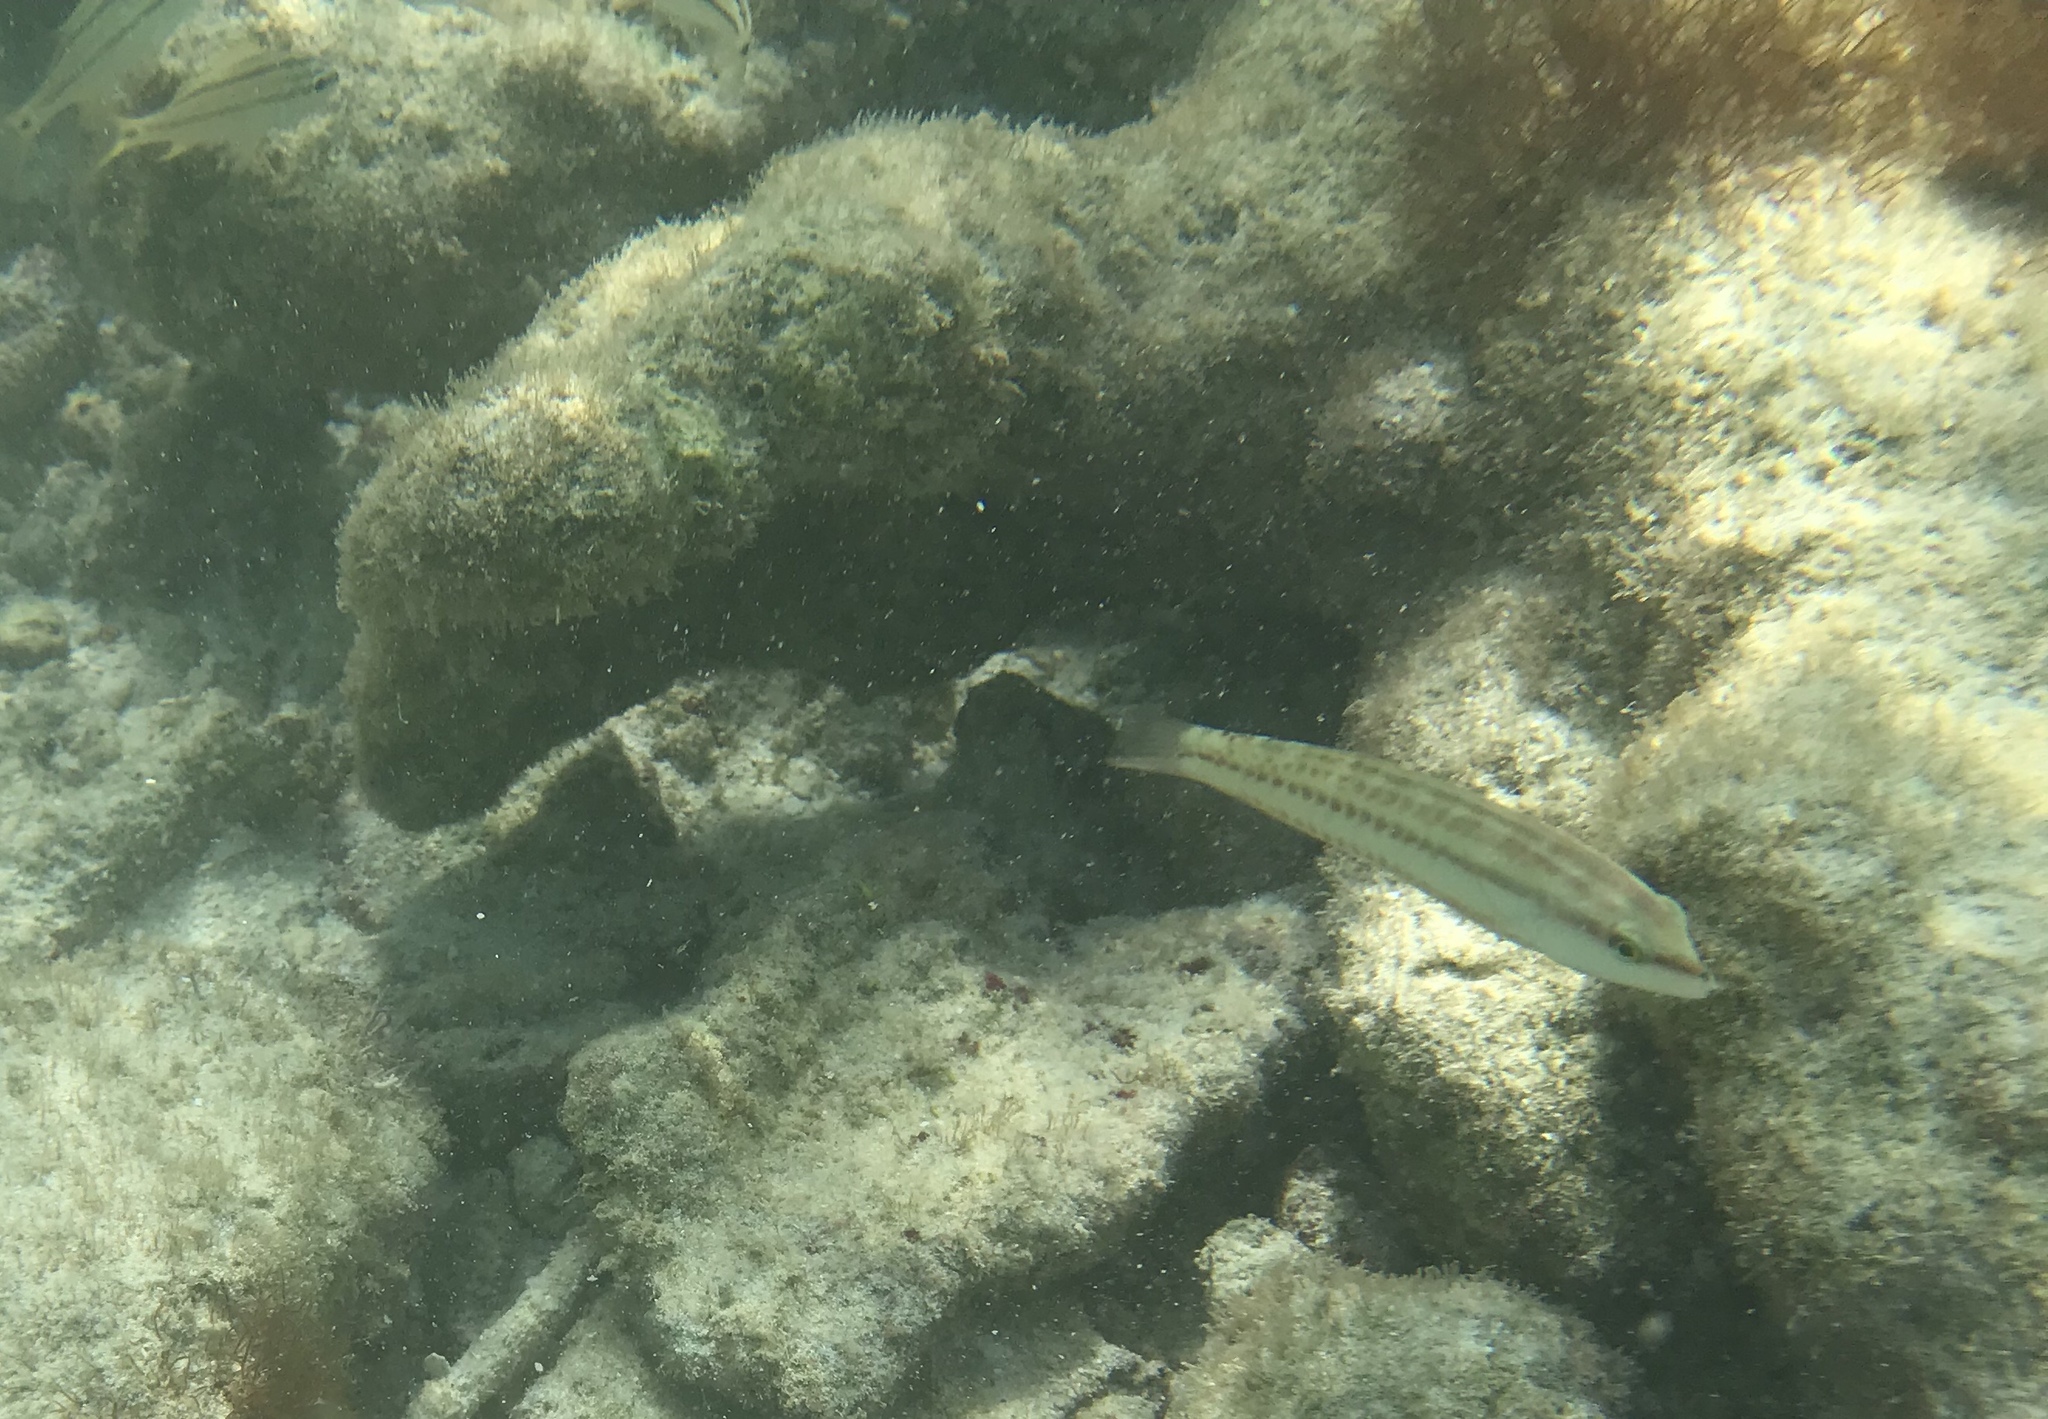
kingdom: Animalia
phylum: Chordata
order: Perciformes
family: Labridae
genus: Halichoeres
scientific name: Halichoeres bivittatus
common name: Slippery dick
